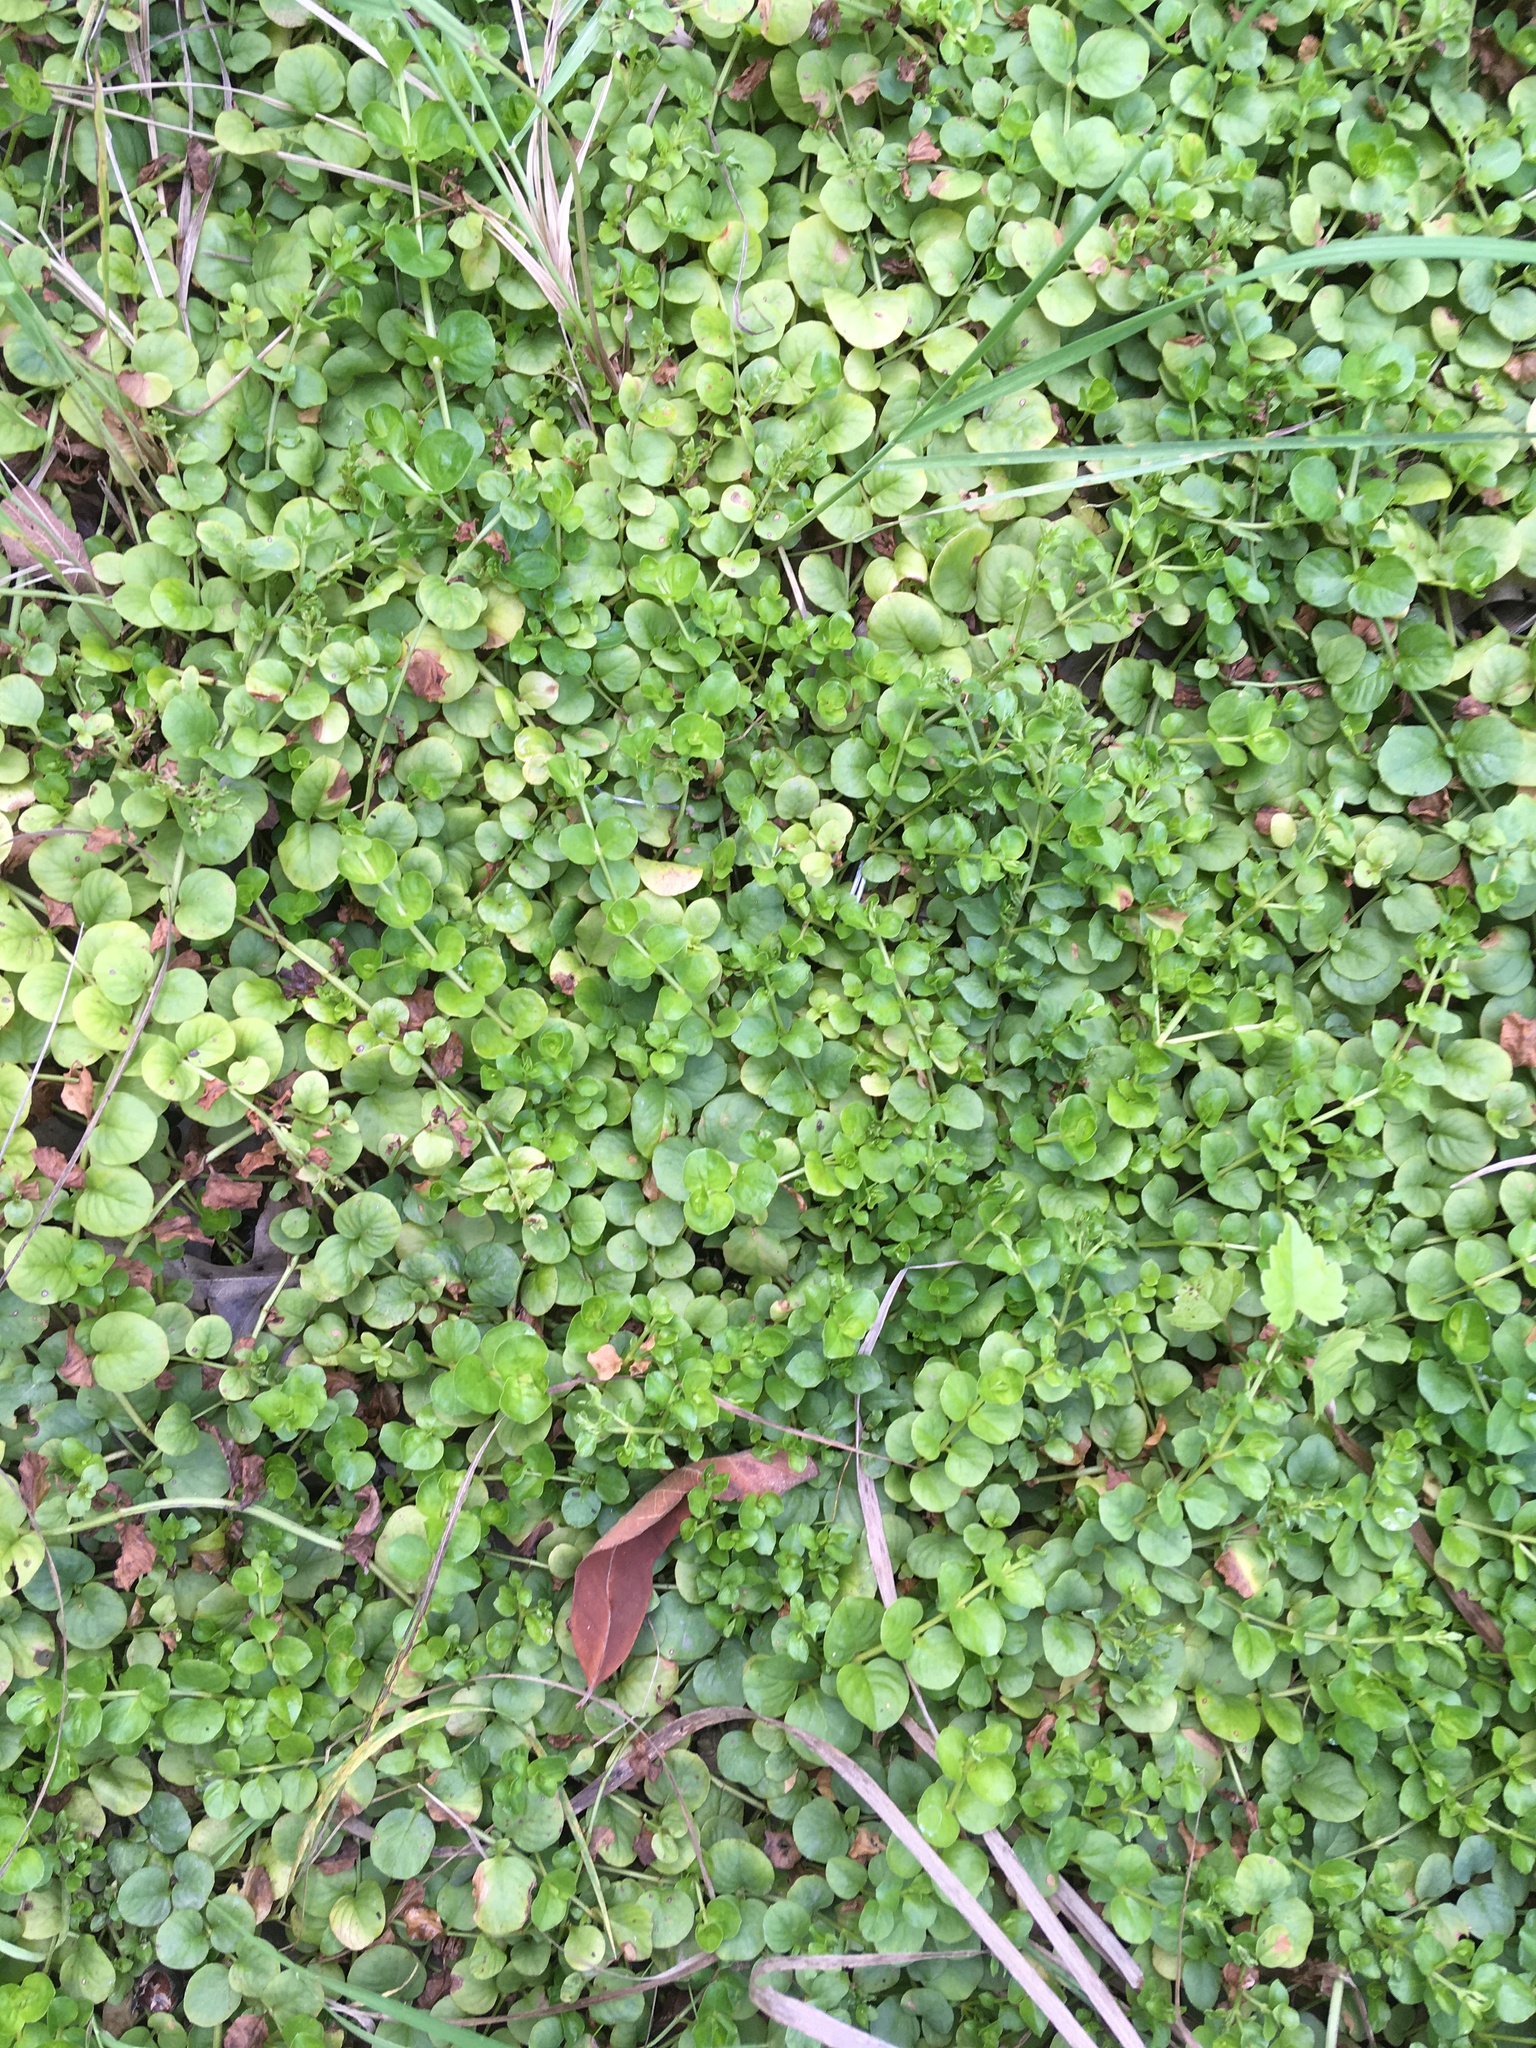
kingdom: Plantae
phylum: Tracheophyta
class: Magnoliopsida
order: Ericales
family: Primulaceae
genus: Lysimachia
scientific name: Lysimachia nummularia
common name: Moneywort
